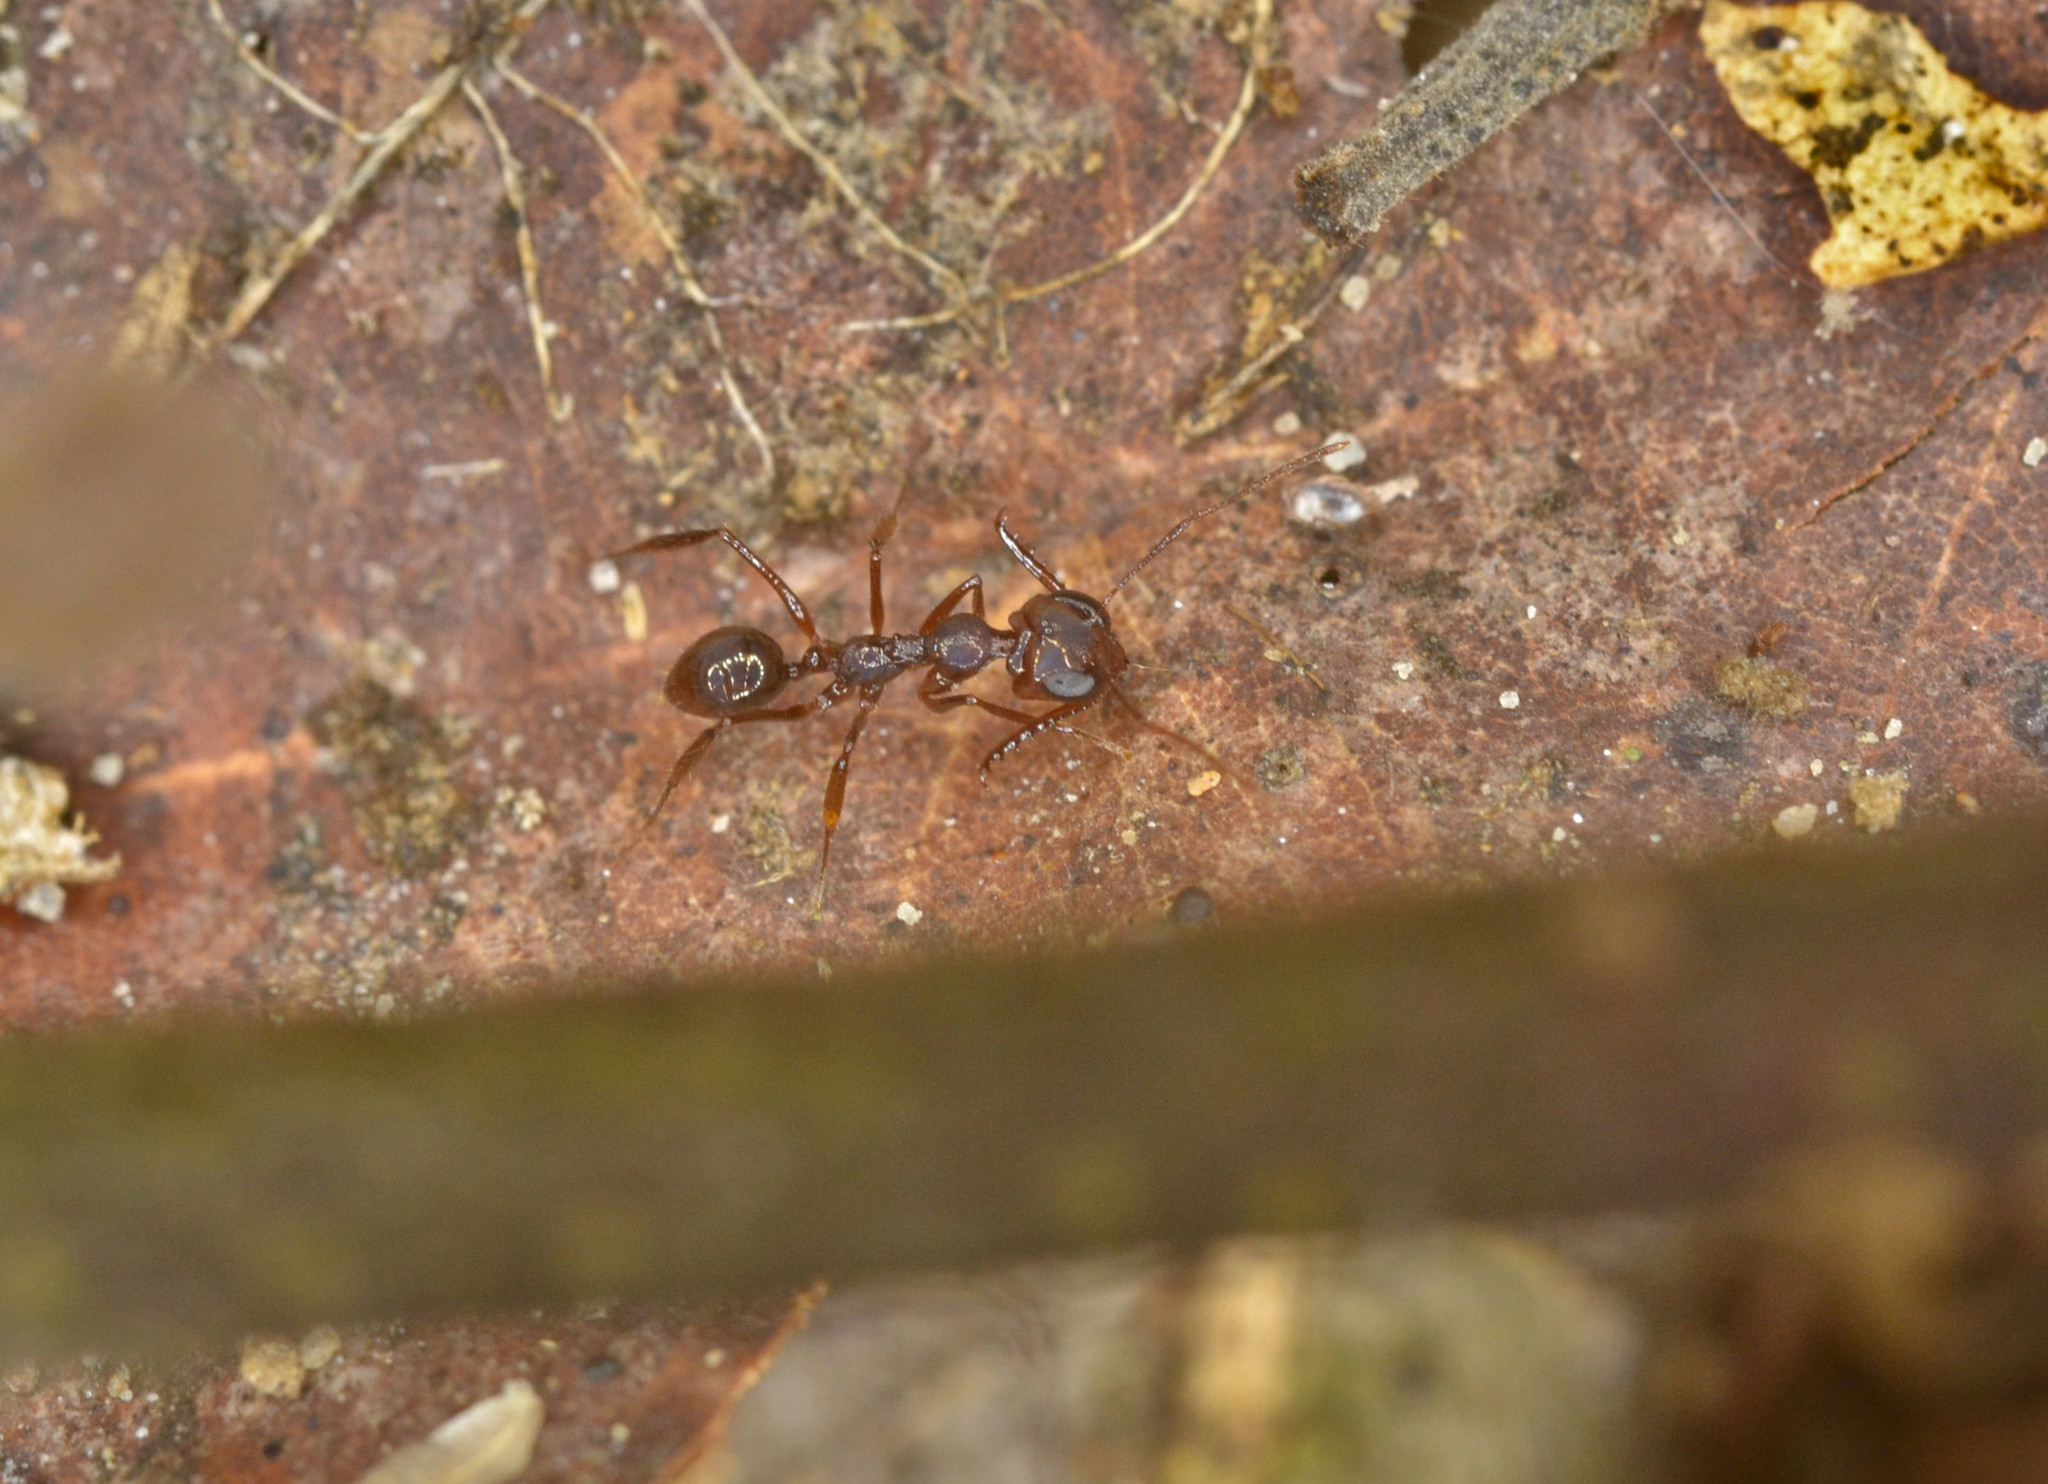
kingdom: Animalia
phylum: Arthropoda
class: Insecta
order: Hymenoptera
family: Formicidae
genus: Myrmoteras
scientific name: Myrmoteras iriodum
